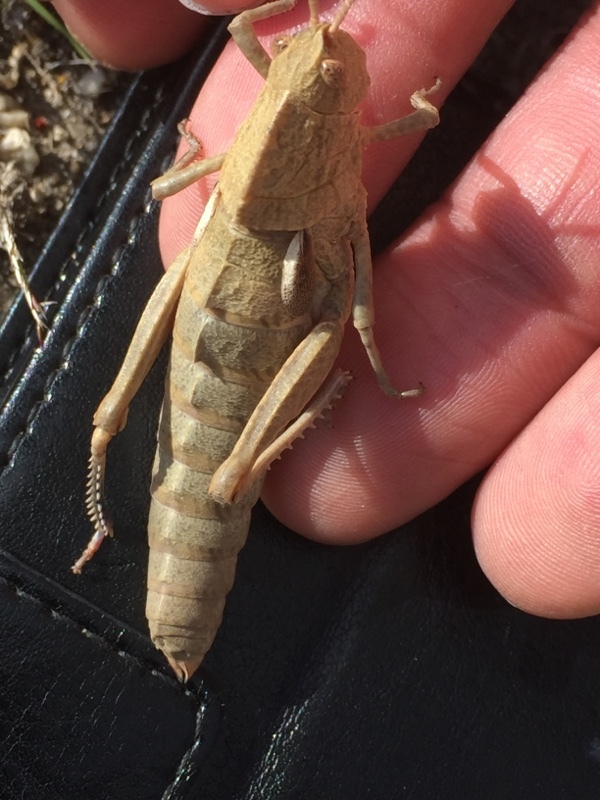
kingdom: Animalia
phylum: Arthropoda
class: Insecta
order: Orthoptera
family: Pamphagidae
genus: Eumigus
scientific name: Eumigus ayresi
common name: Ayres' stone grasshopper
